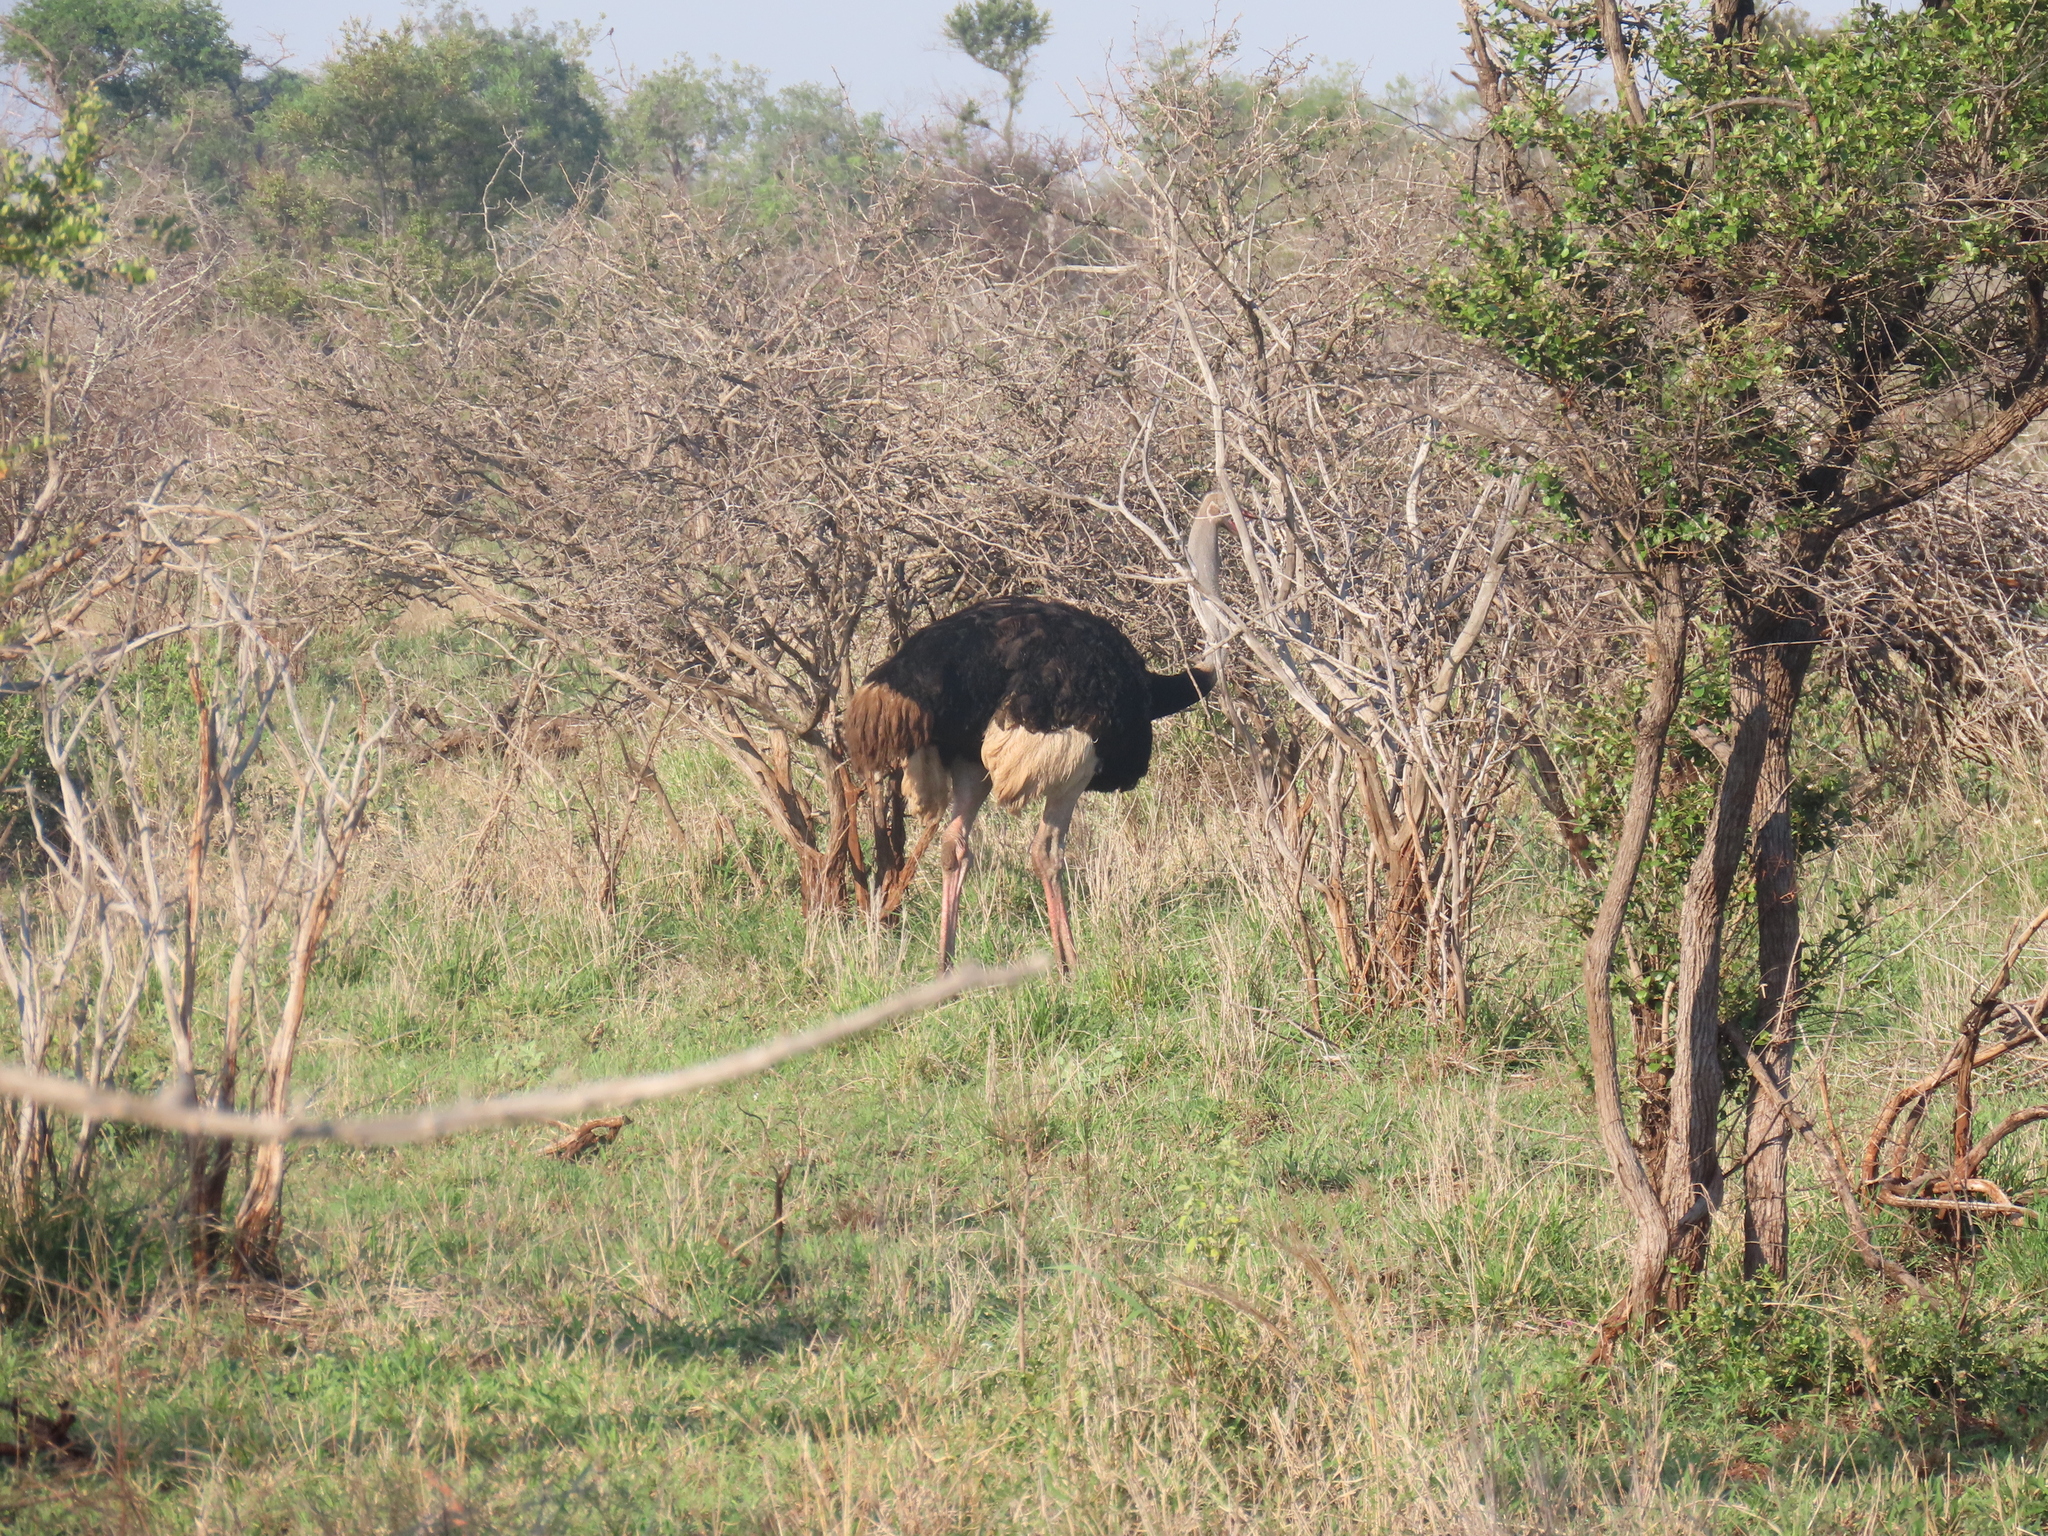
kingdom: Animalia
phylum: Chordata
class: Aves
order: Struthioniformes
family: Struthionidae
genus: Struthio
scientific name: Struthio camelus
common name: Common ostrich
